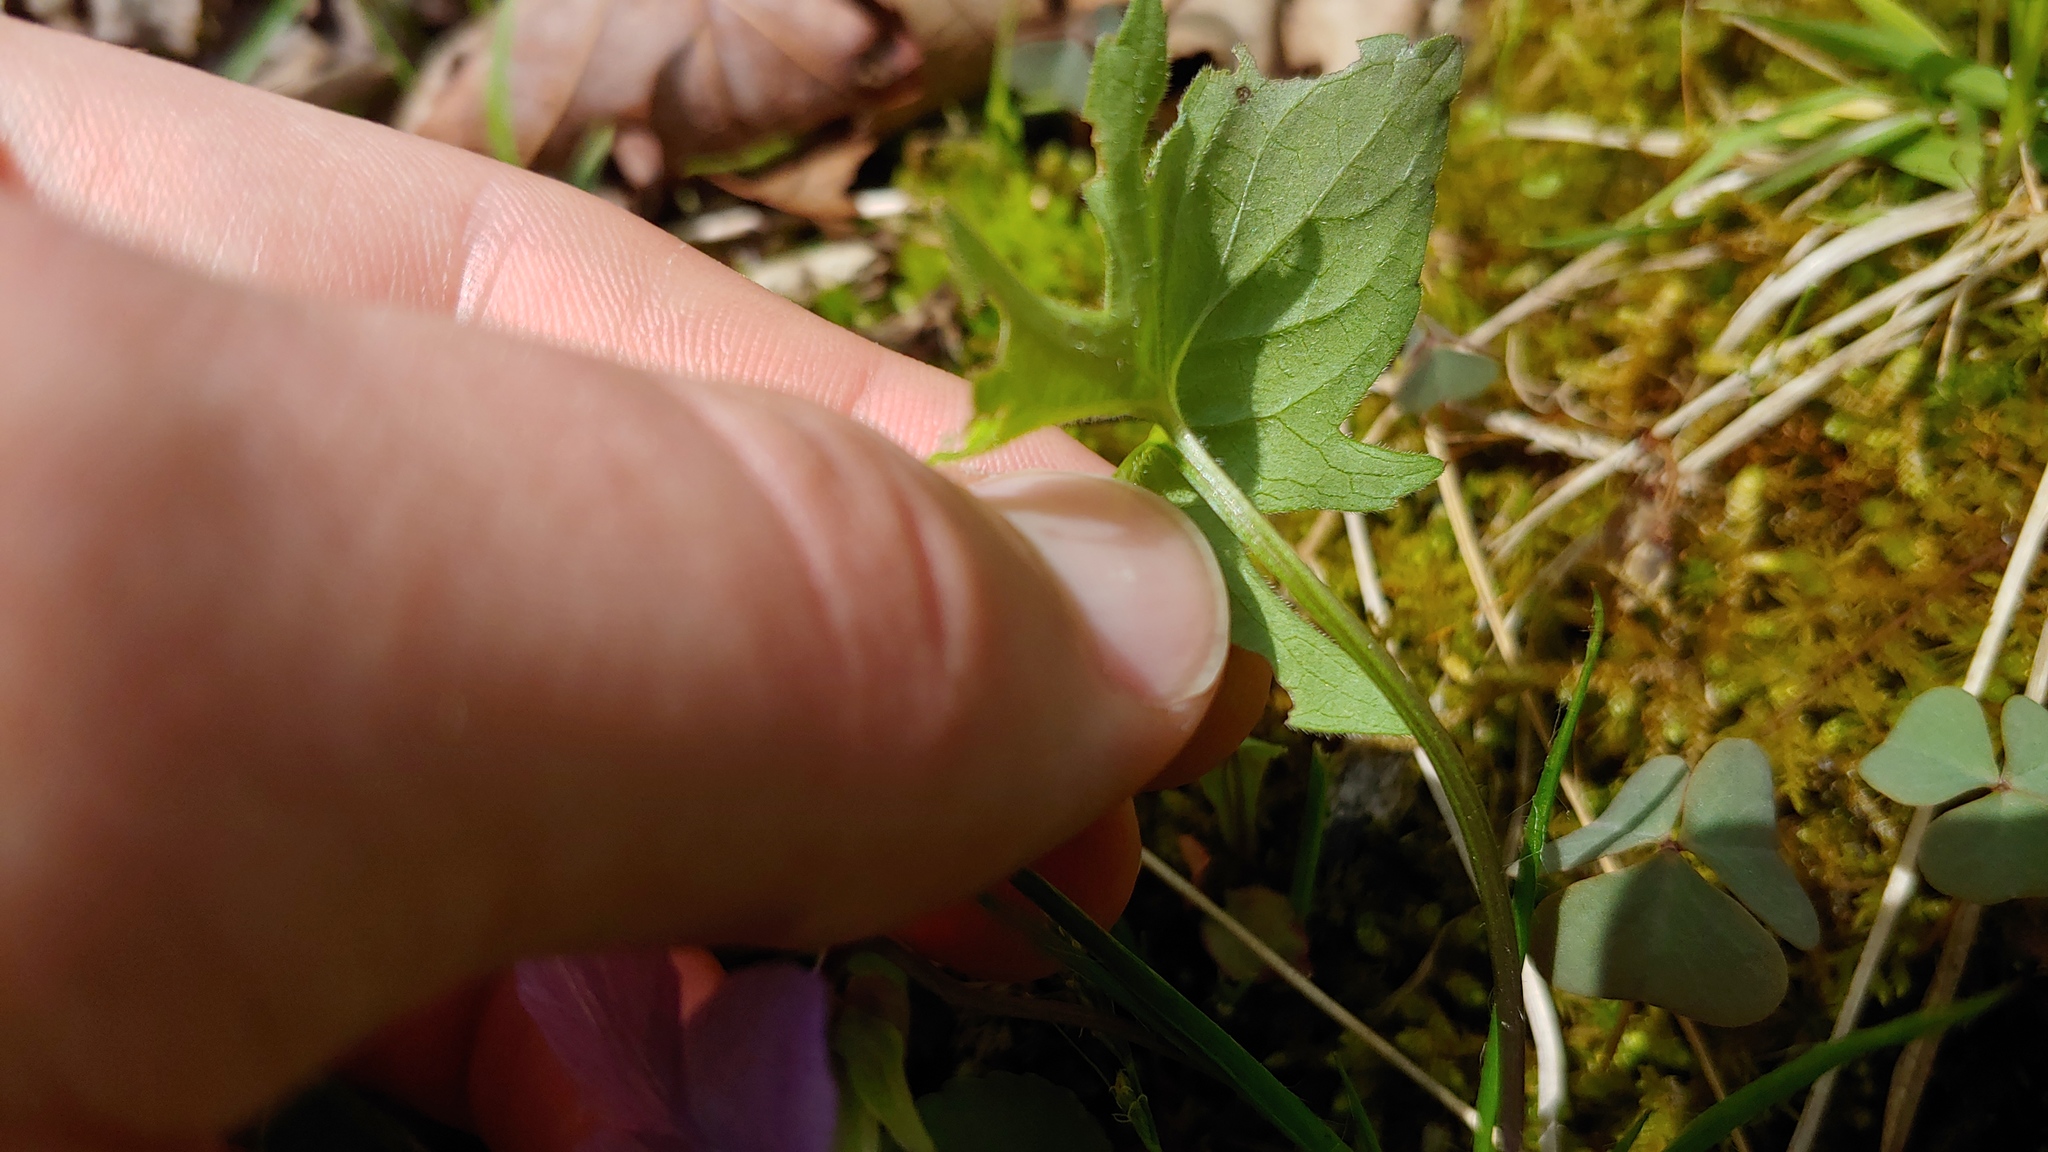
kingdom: Plantae
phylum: Tracheophyta
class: Magnoliopsida
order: Malpighiales
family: Violaceae
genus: Viola
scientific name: Viola palmata
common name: Early blue violet
